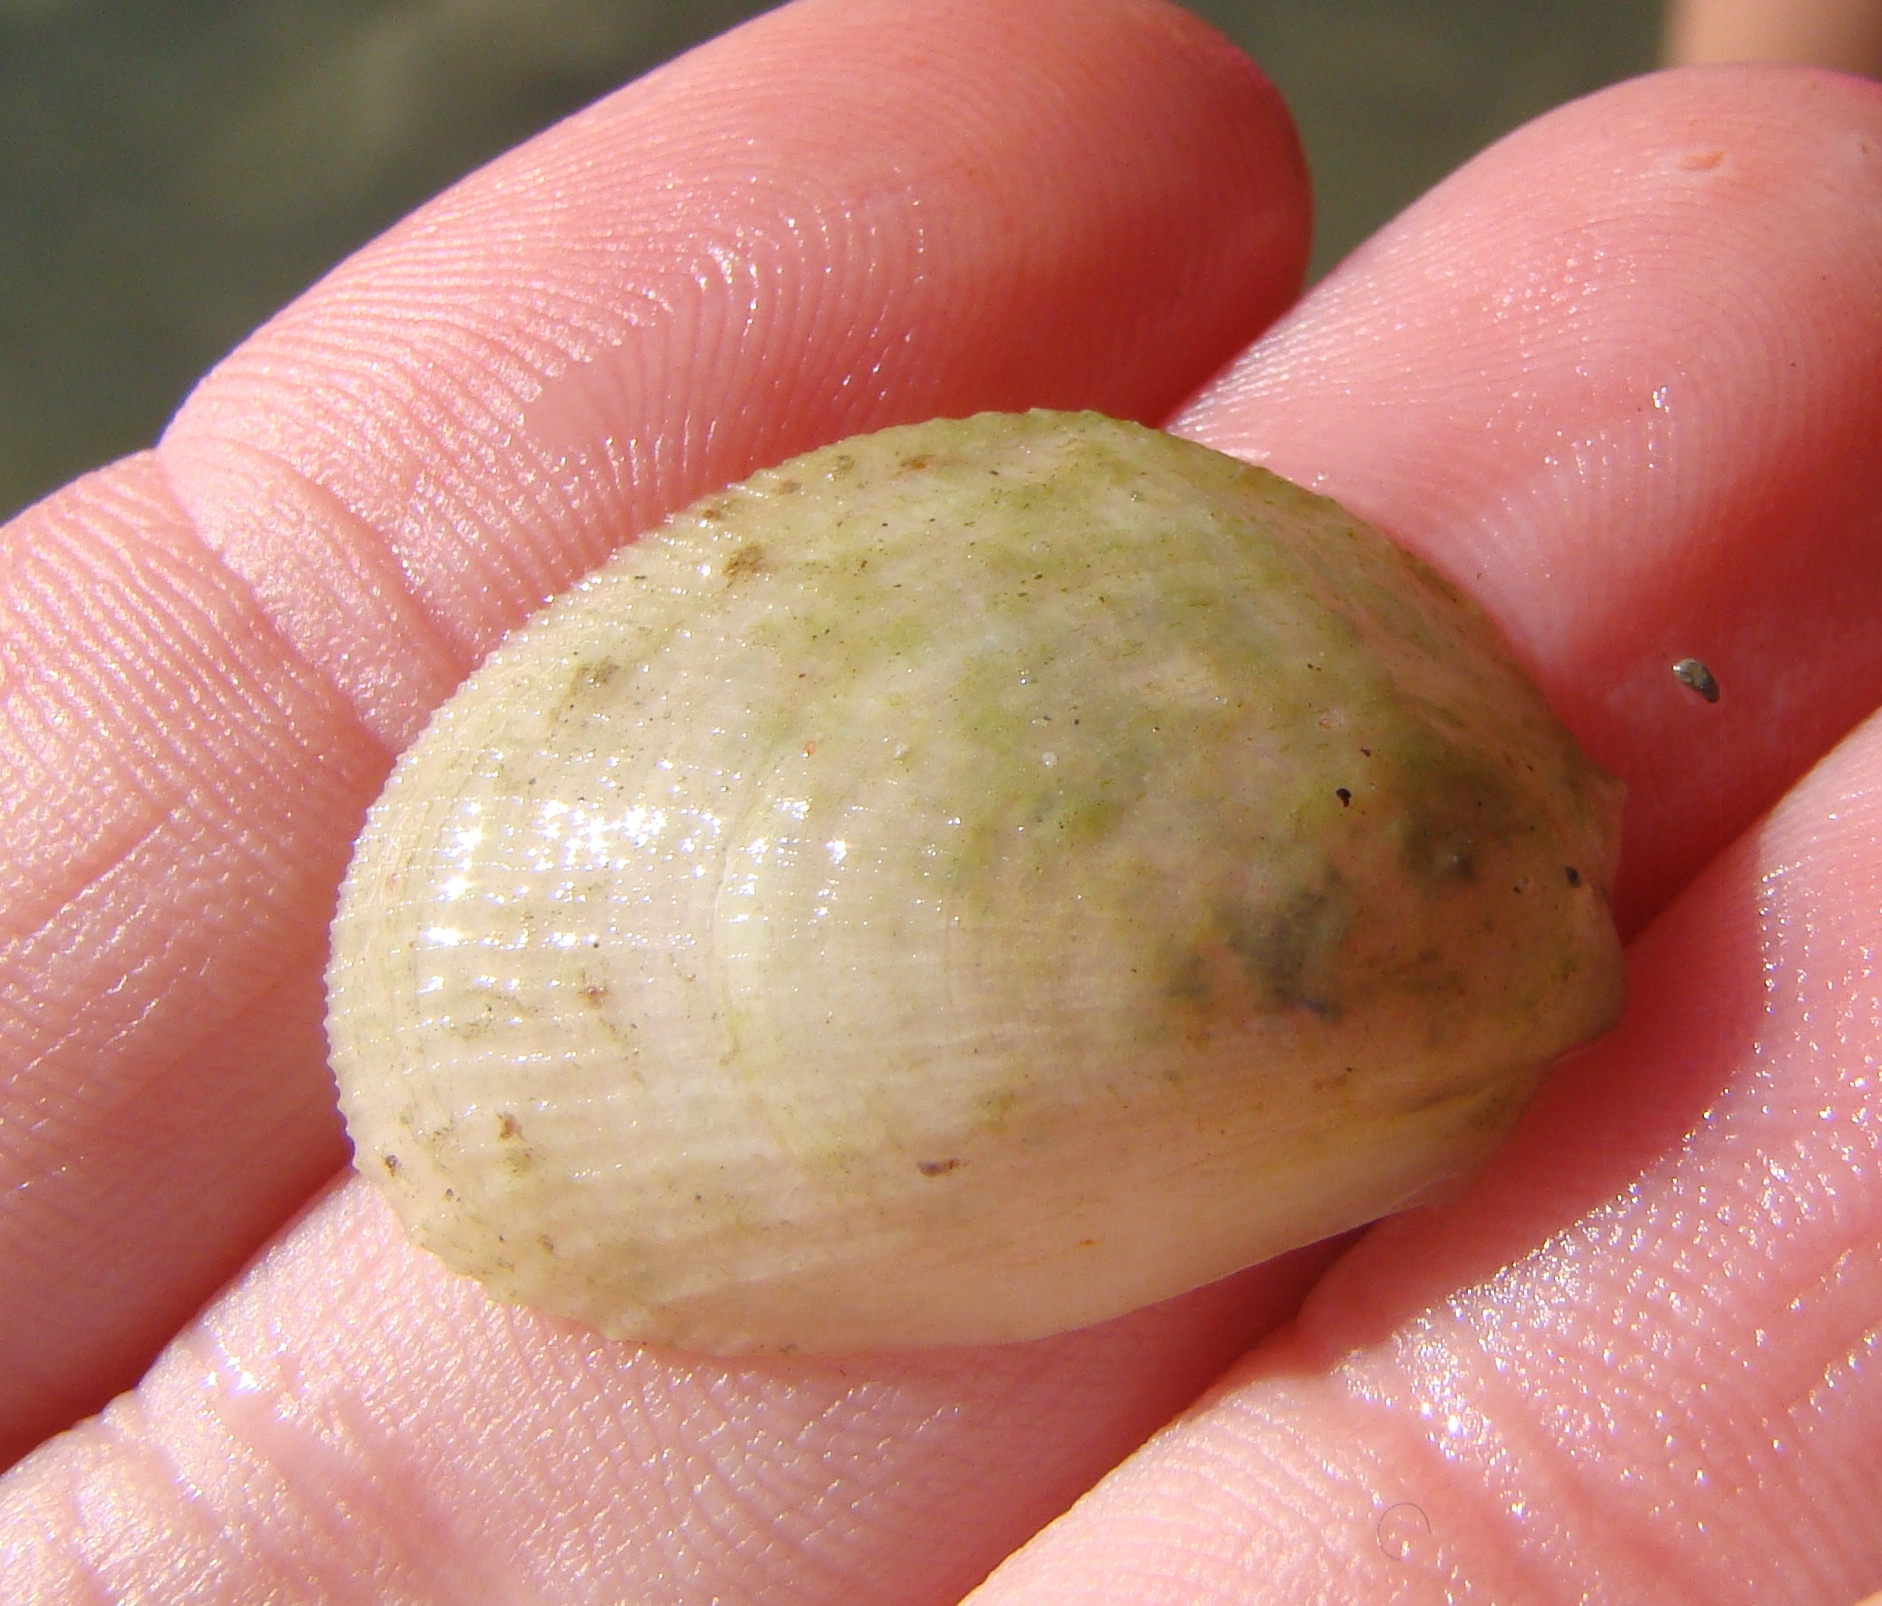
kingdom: Animalia
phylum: Mollusca
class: Bivalvia
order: Limida
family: Limidae
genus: Limaria
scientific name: Limaria orientalis
